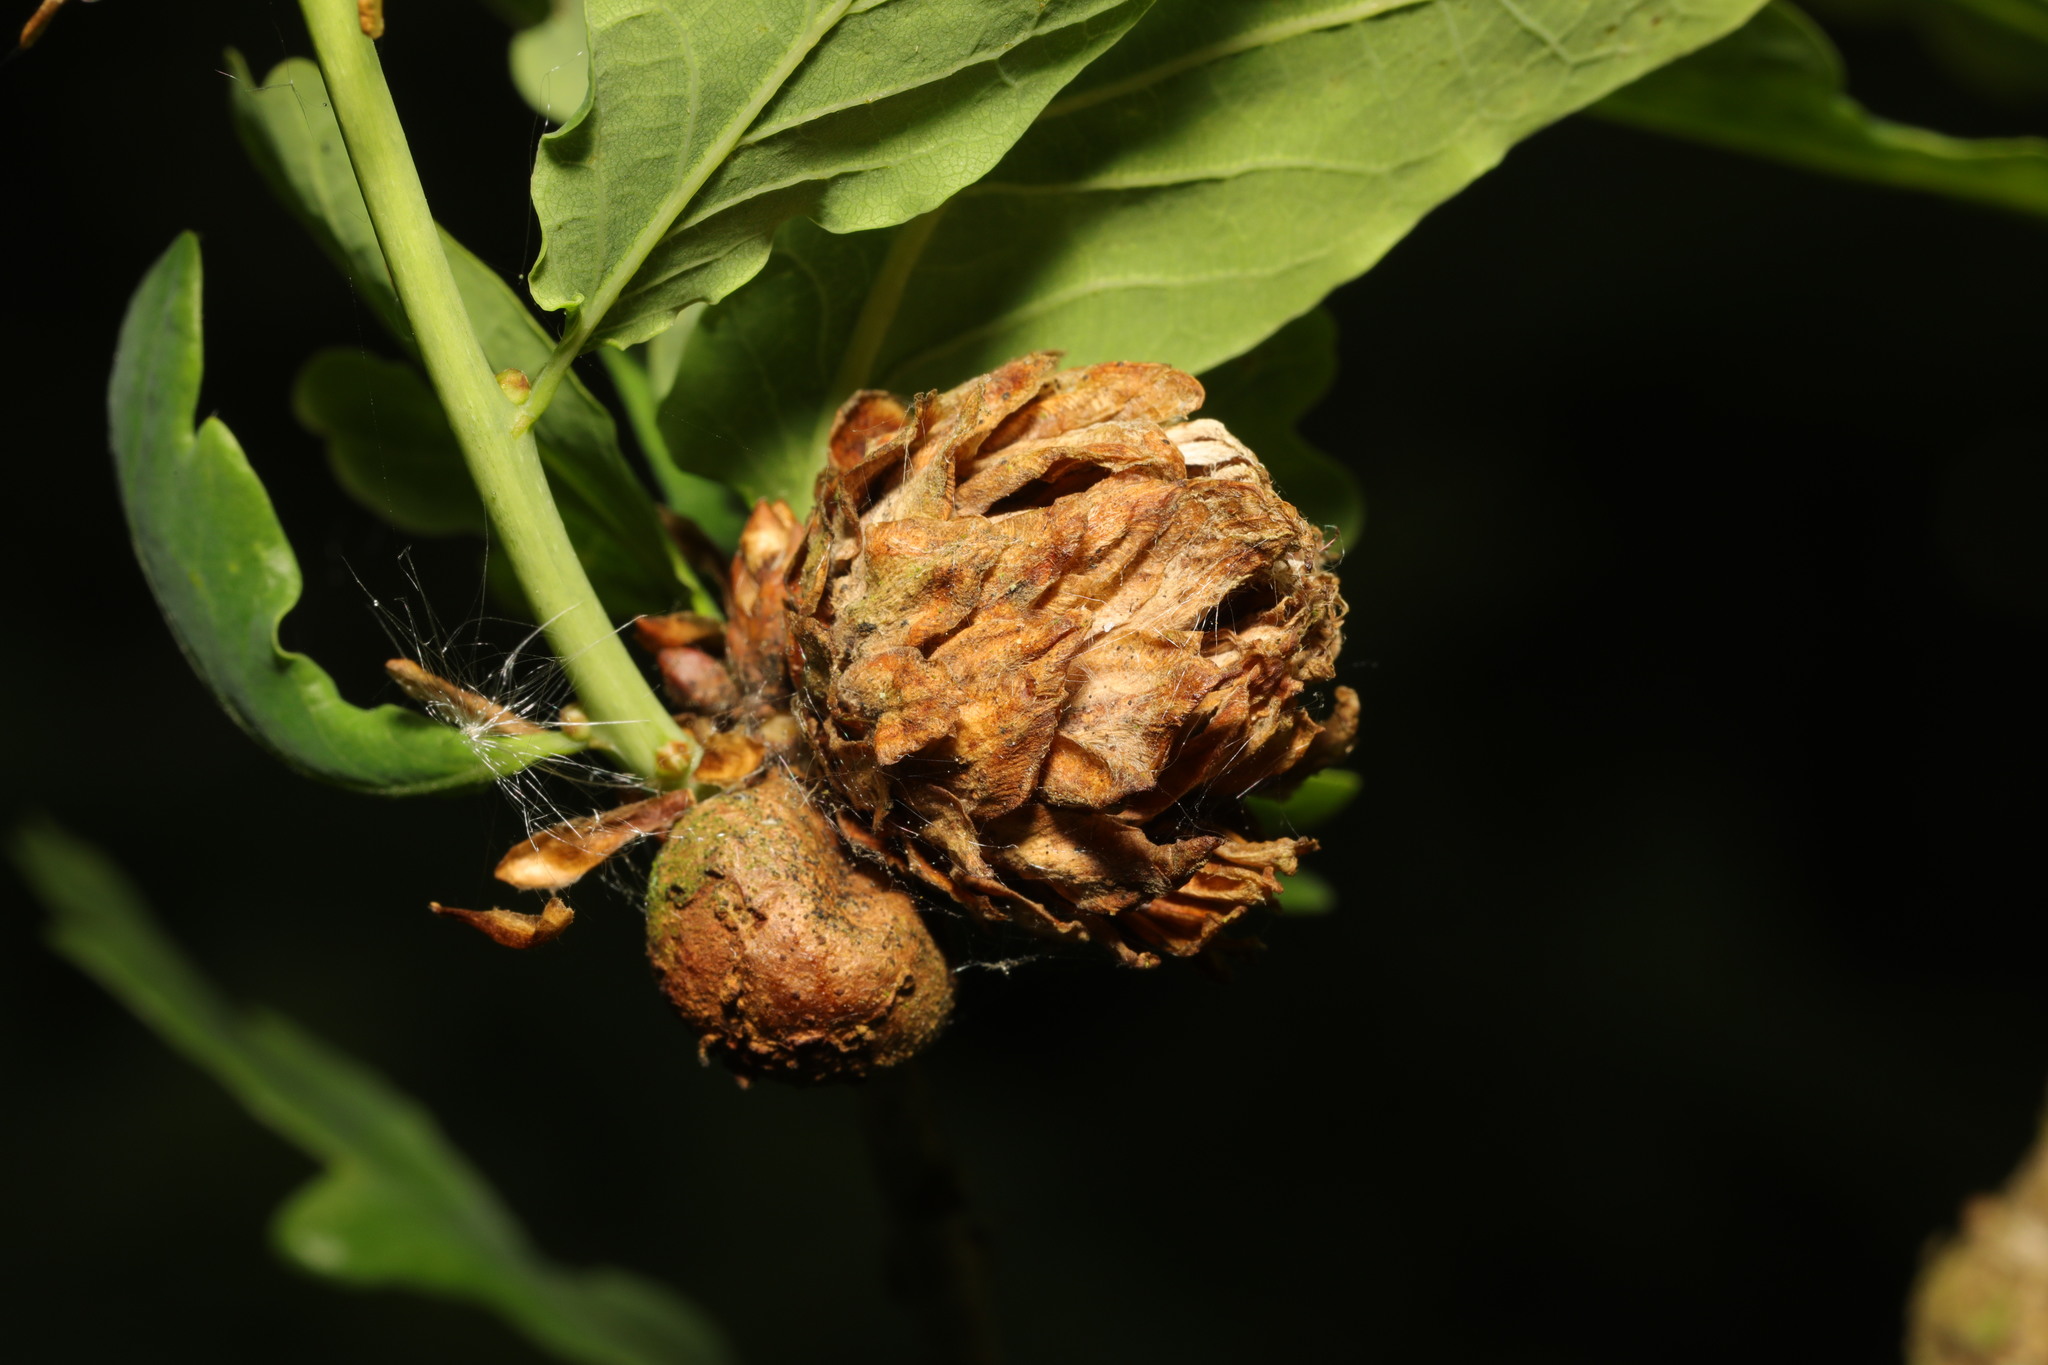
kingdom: Animalia
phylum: Arthropoda
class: Insecta
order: Hymenoptera
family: Cynipidae
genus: Andricus
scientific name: Andricus foecundatrix
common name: Artichoke gall
